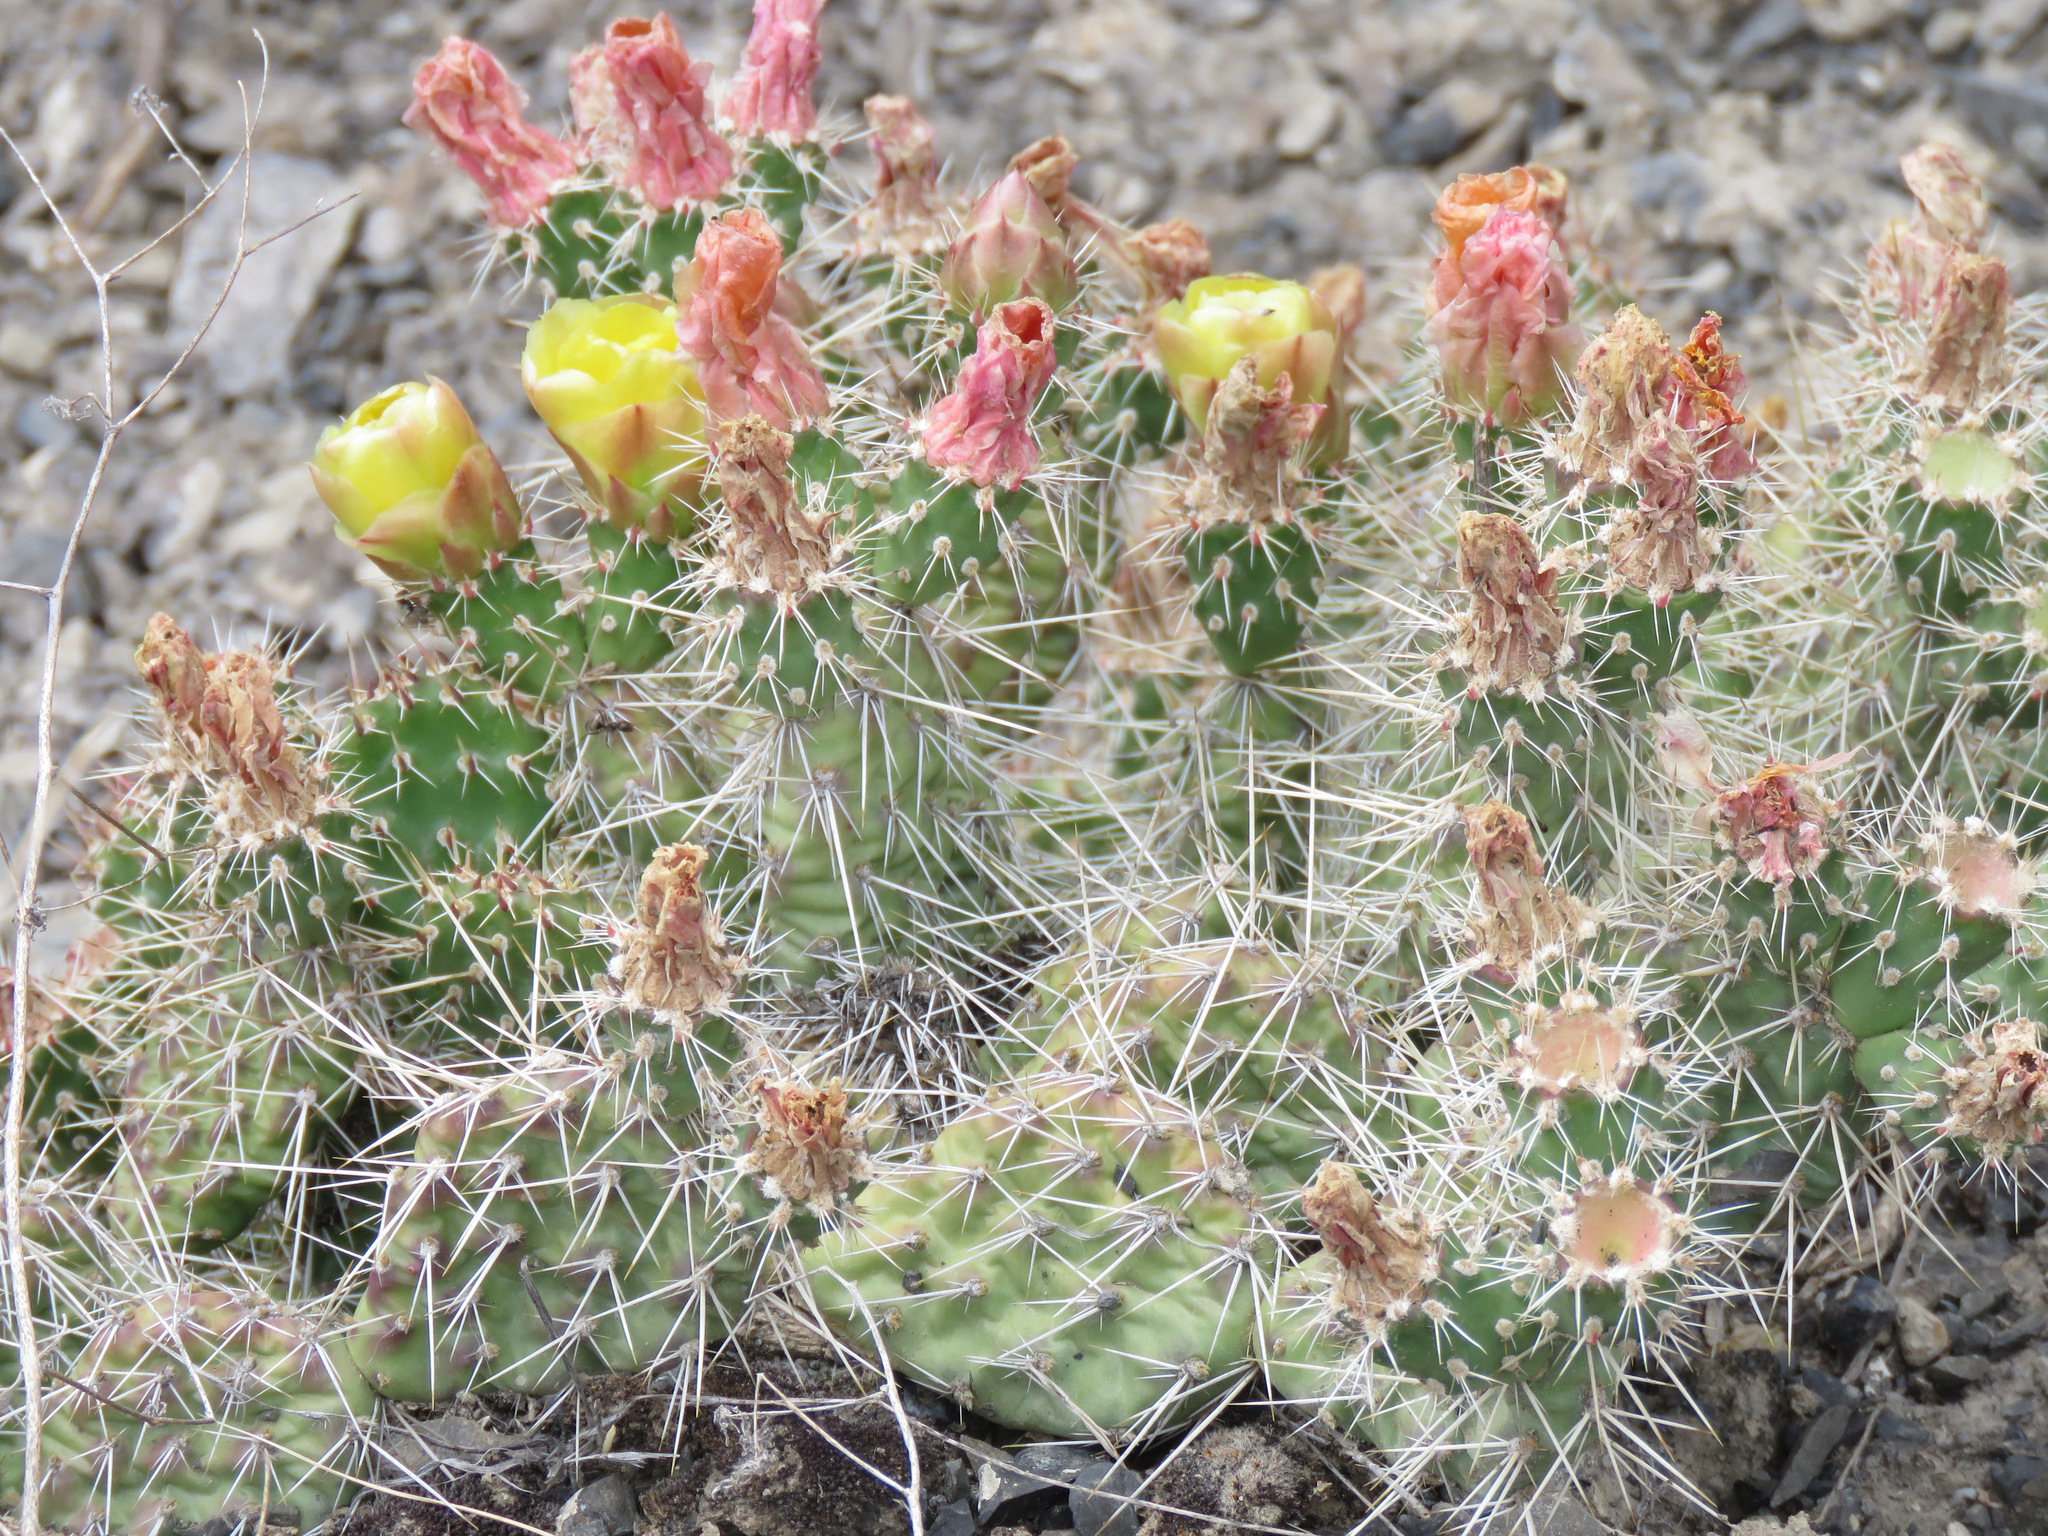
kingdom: Plantae
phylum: Tracheophyta
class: Magnoliopsida
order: Caryophyllales
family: Cactaceae
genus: Opuntia
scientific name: Opuntia fragilis
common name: Brittle cactus
